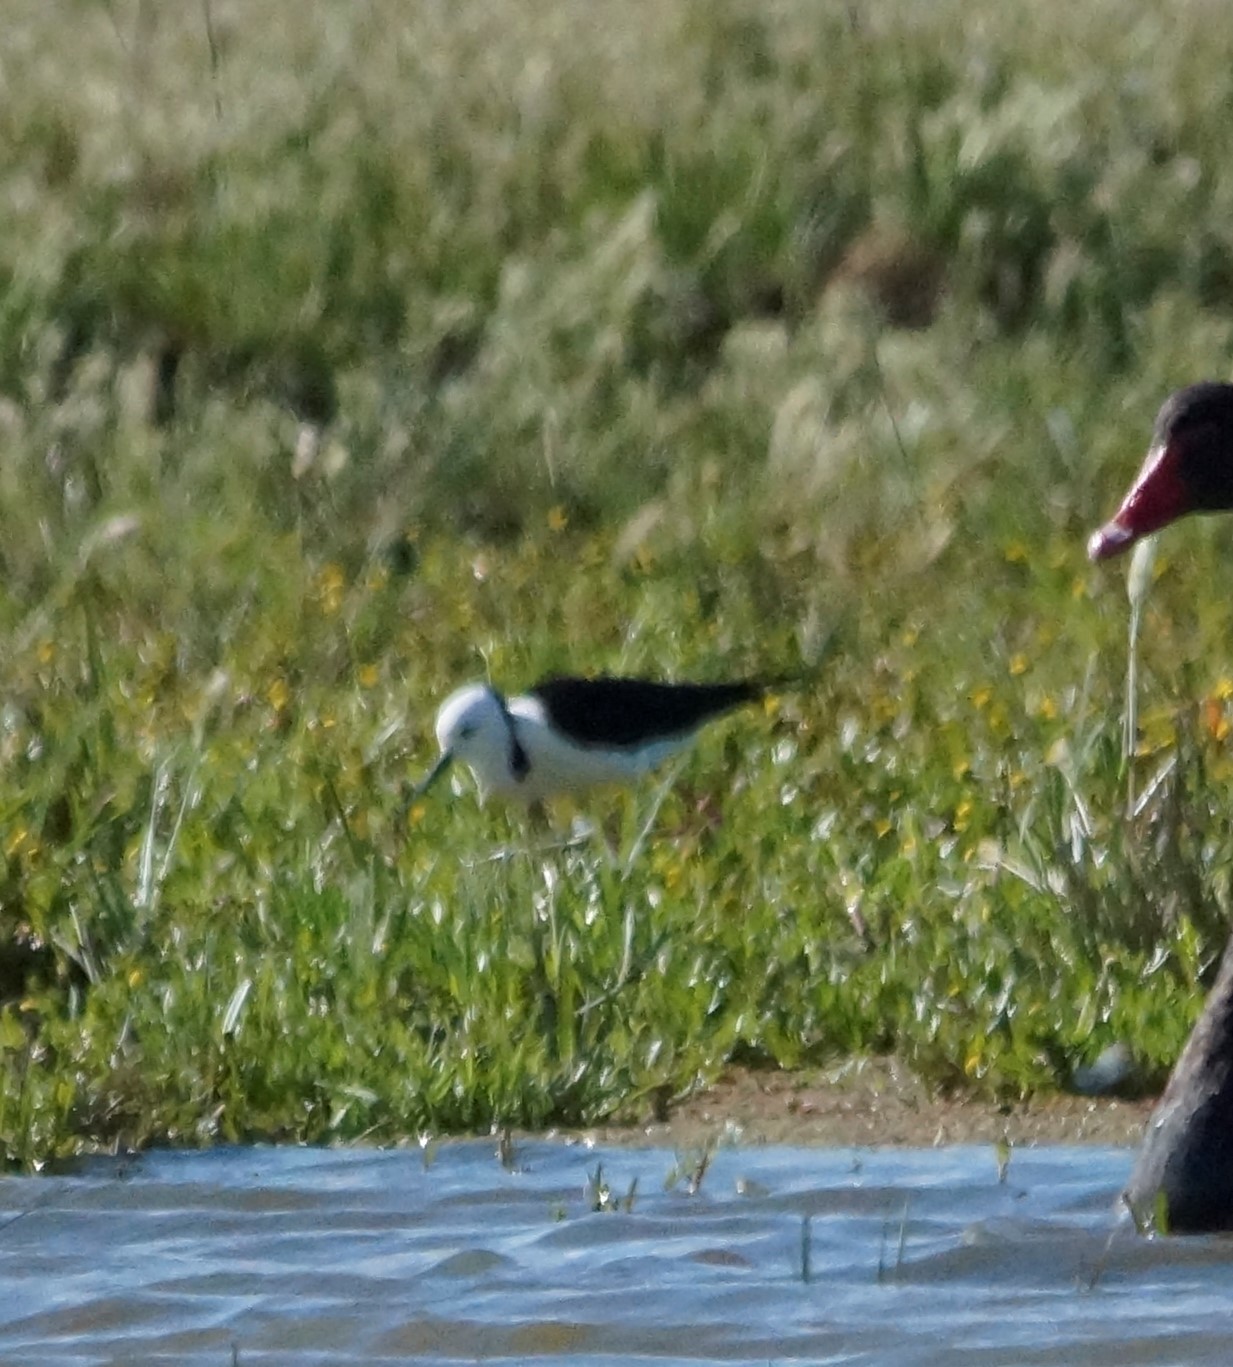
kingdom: Animalia
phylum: Chordata
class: Aves
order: Charadriiformes
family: Recurvirostridae
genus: Himantopus
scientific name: Himantopus leucocephalus
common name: White-headed stilt
